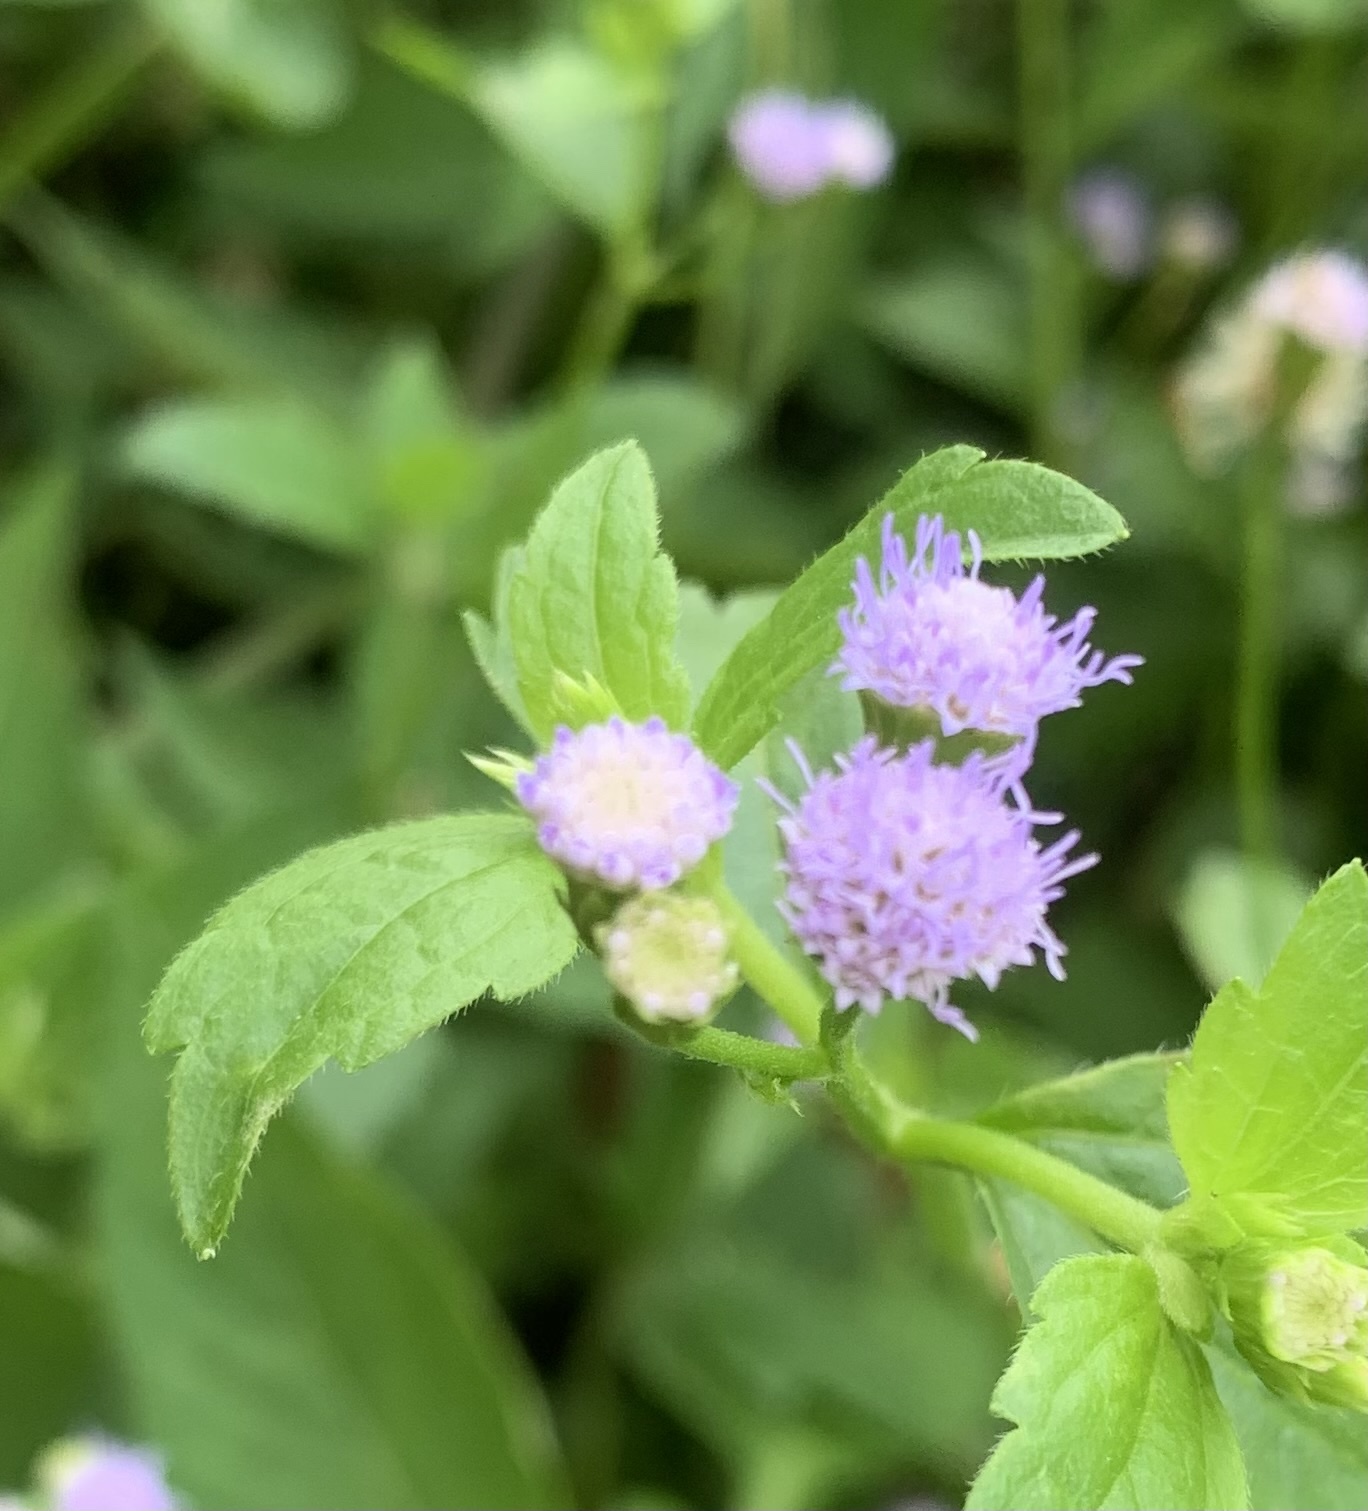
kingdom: Plantae
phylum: Tracheophyta
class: Magnoliopsida
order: Asterales
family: Asteraceae
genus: Praxelis
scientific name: Praxelis clematidea
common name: Praxelis
